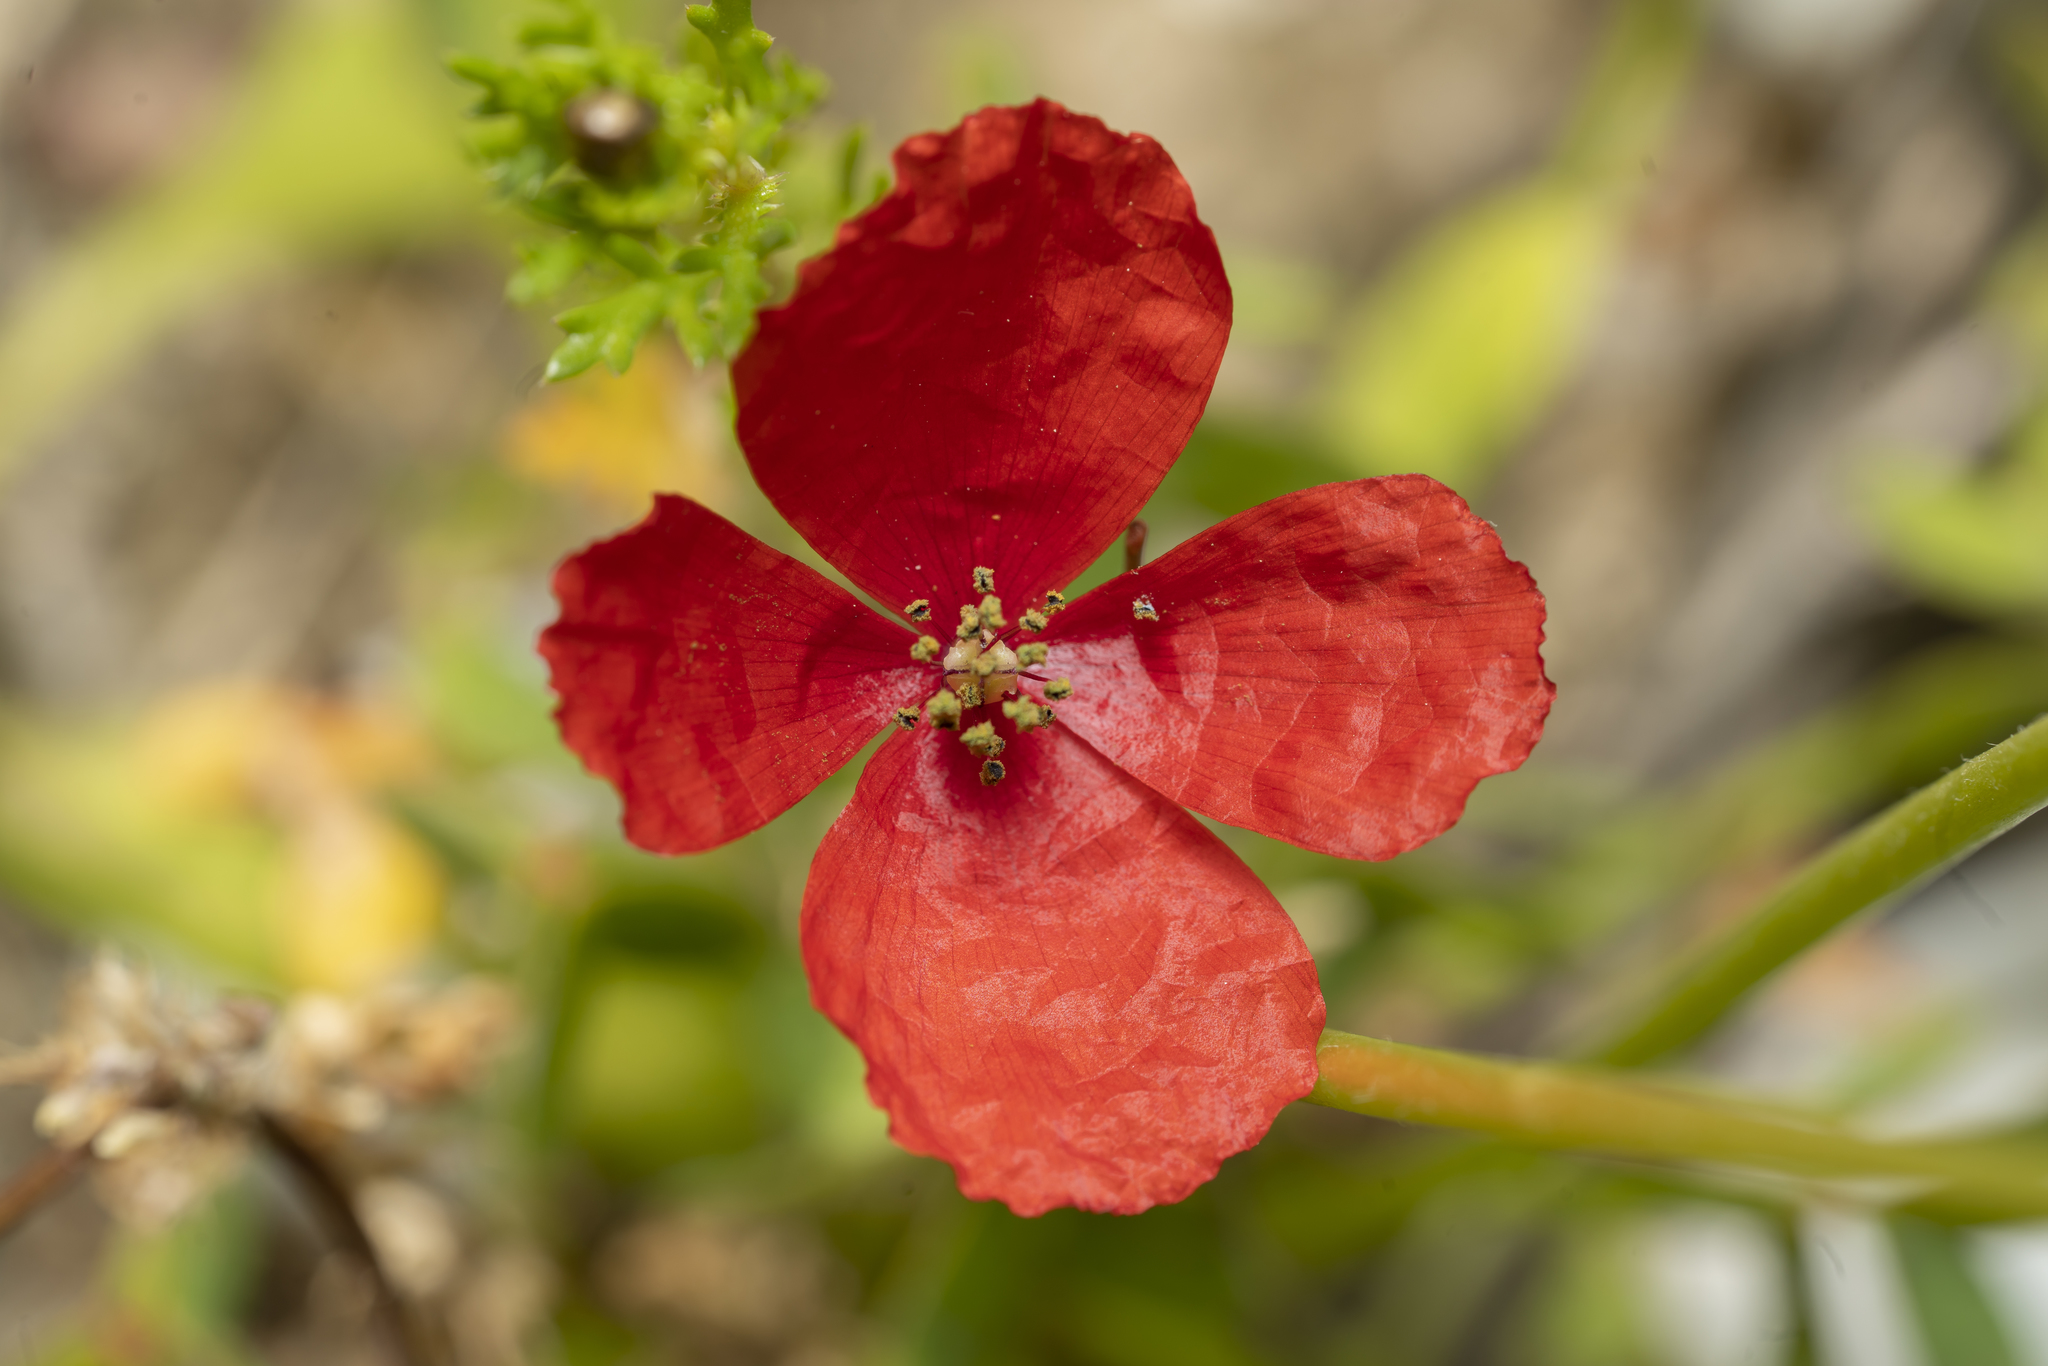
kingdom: Plantae
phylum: Tracheophyta
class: Magnoliopsida
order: Ranunculales
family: Papaveraceae
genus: Papaver
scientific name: Papaver rhoeas
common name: Corn poppy
